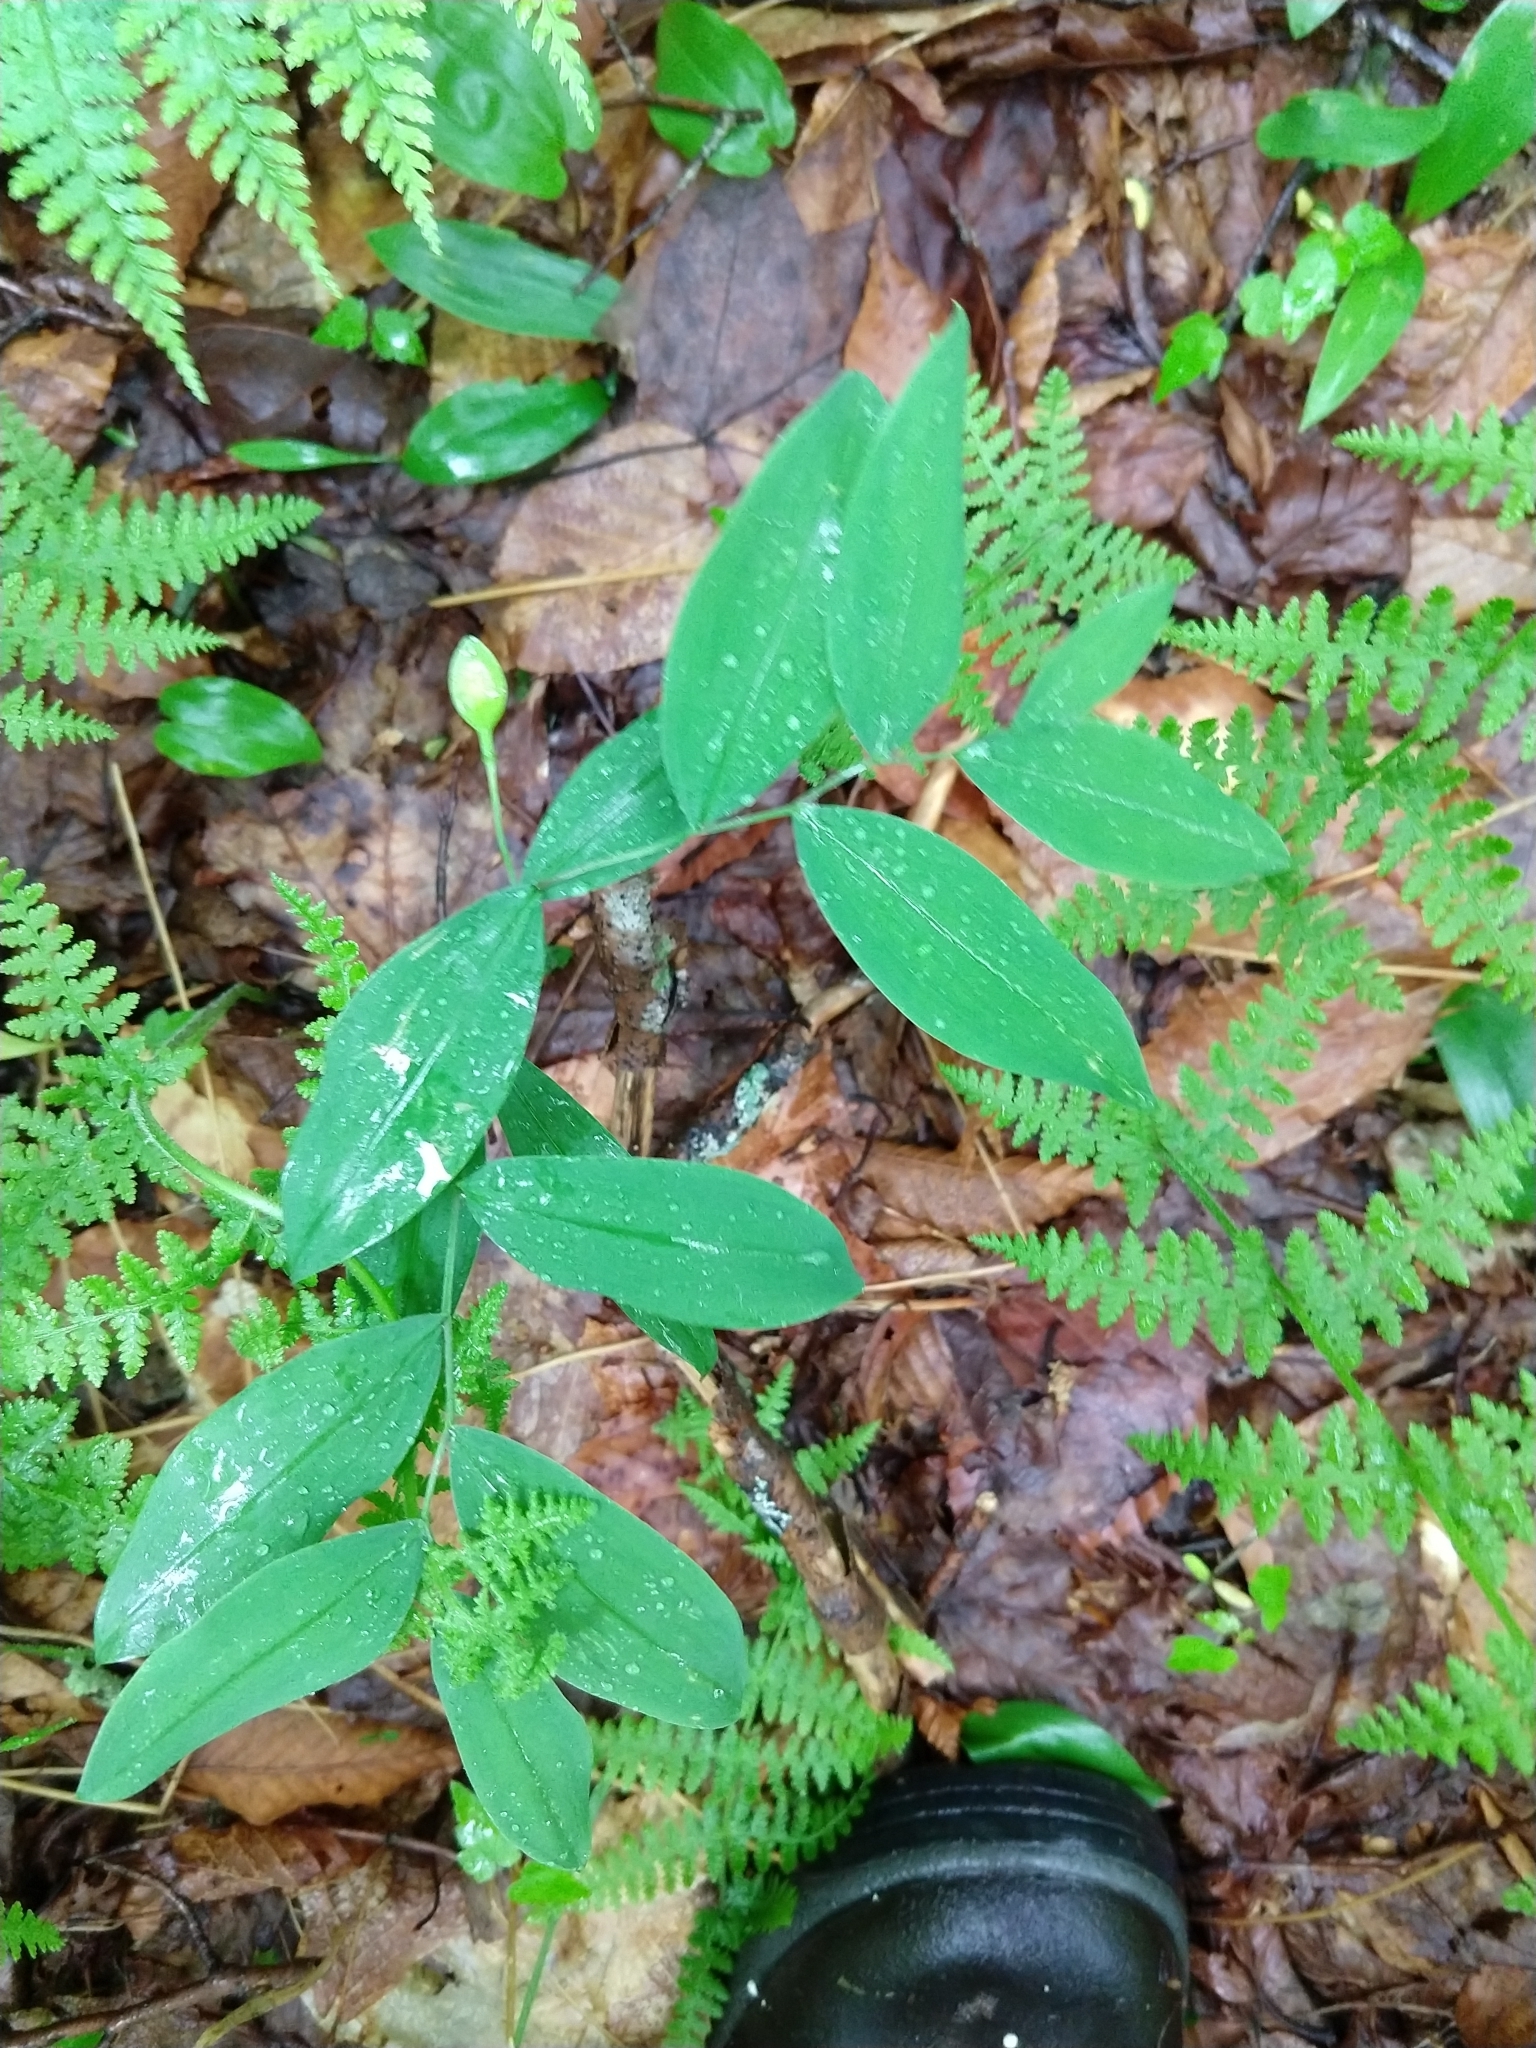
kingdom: Plantae
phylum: Tracheophyta
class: Liliopsida
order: Liliales
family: Colchicaceae
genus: Uvularia
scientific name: Uvularia sessilifolia
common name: Straw-lily
